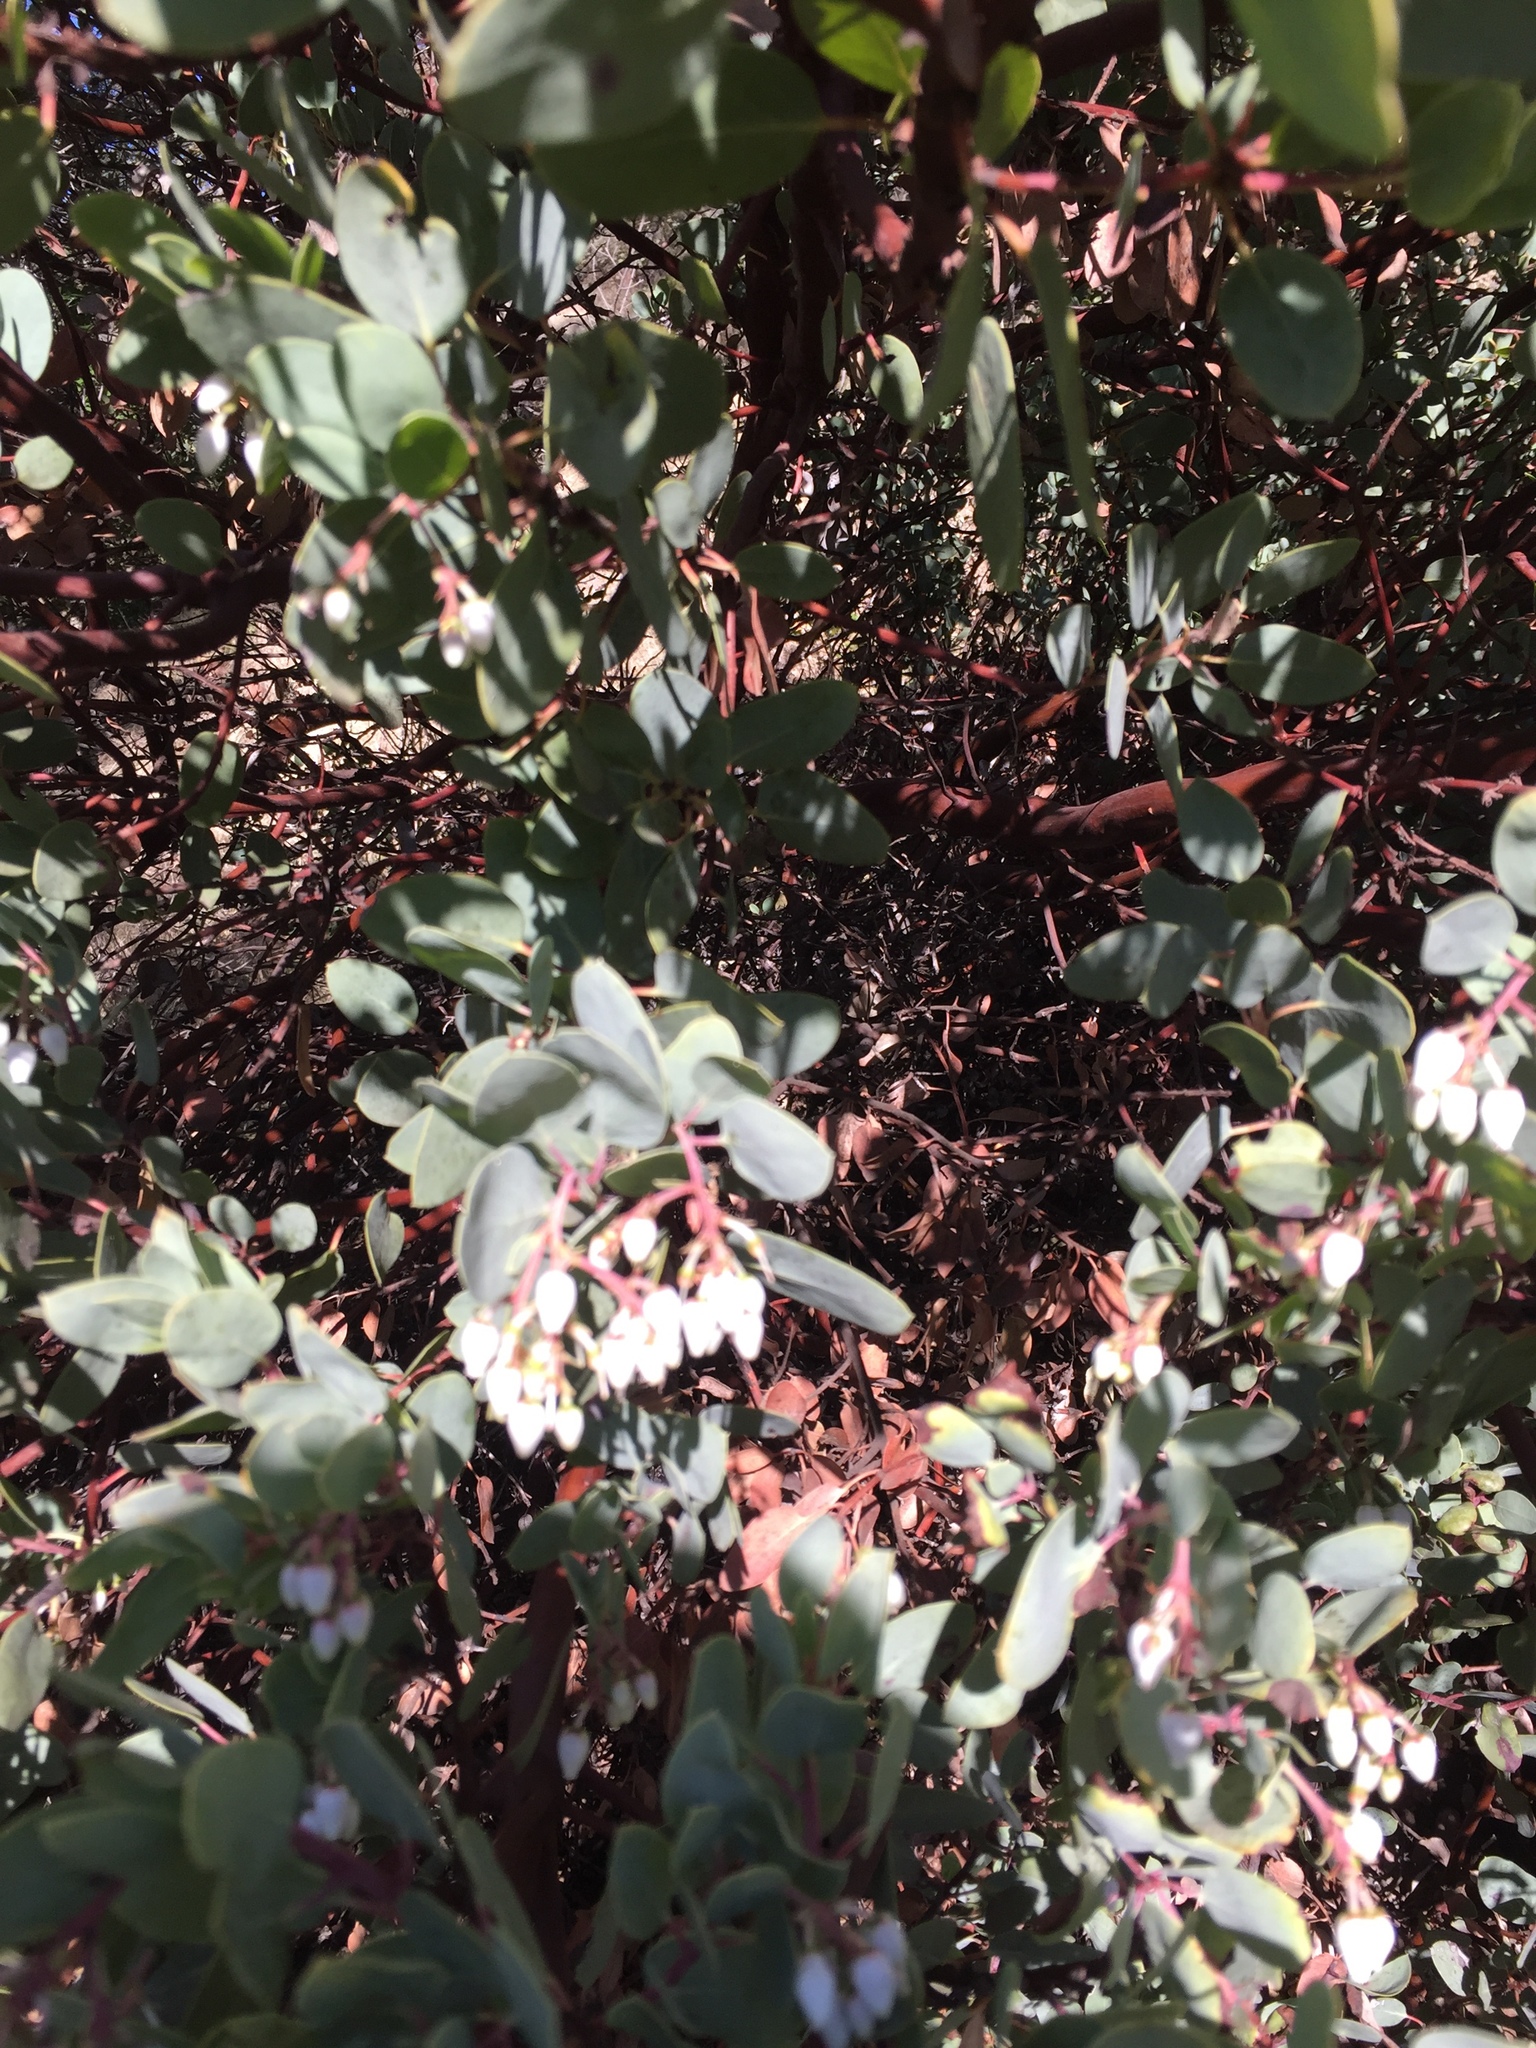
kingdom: Plantae
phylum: Tracheophyta
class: Magnoliopsida
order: Ericales
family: Ericaceae
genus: Arctostaphylos
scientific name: Arctostaphylos glauca
